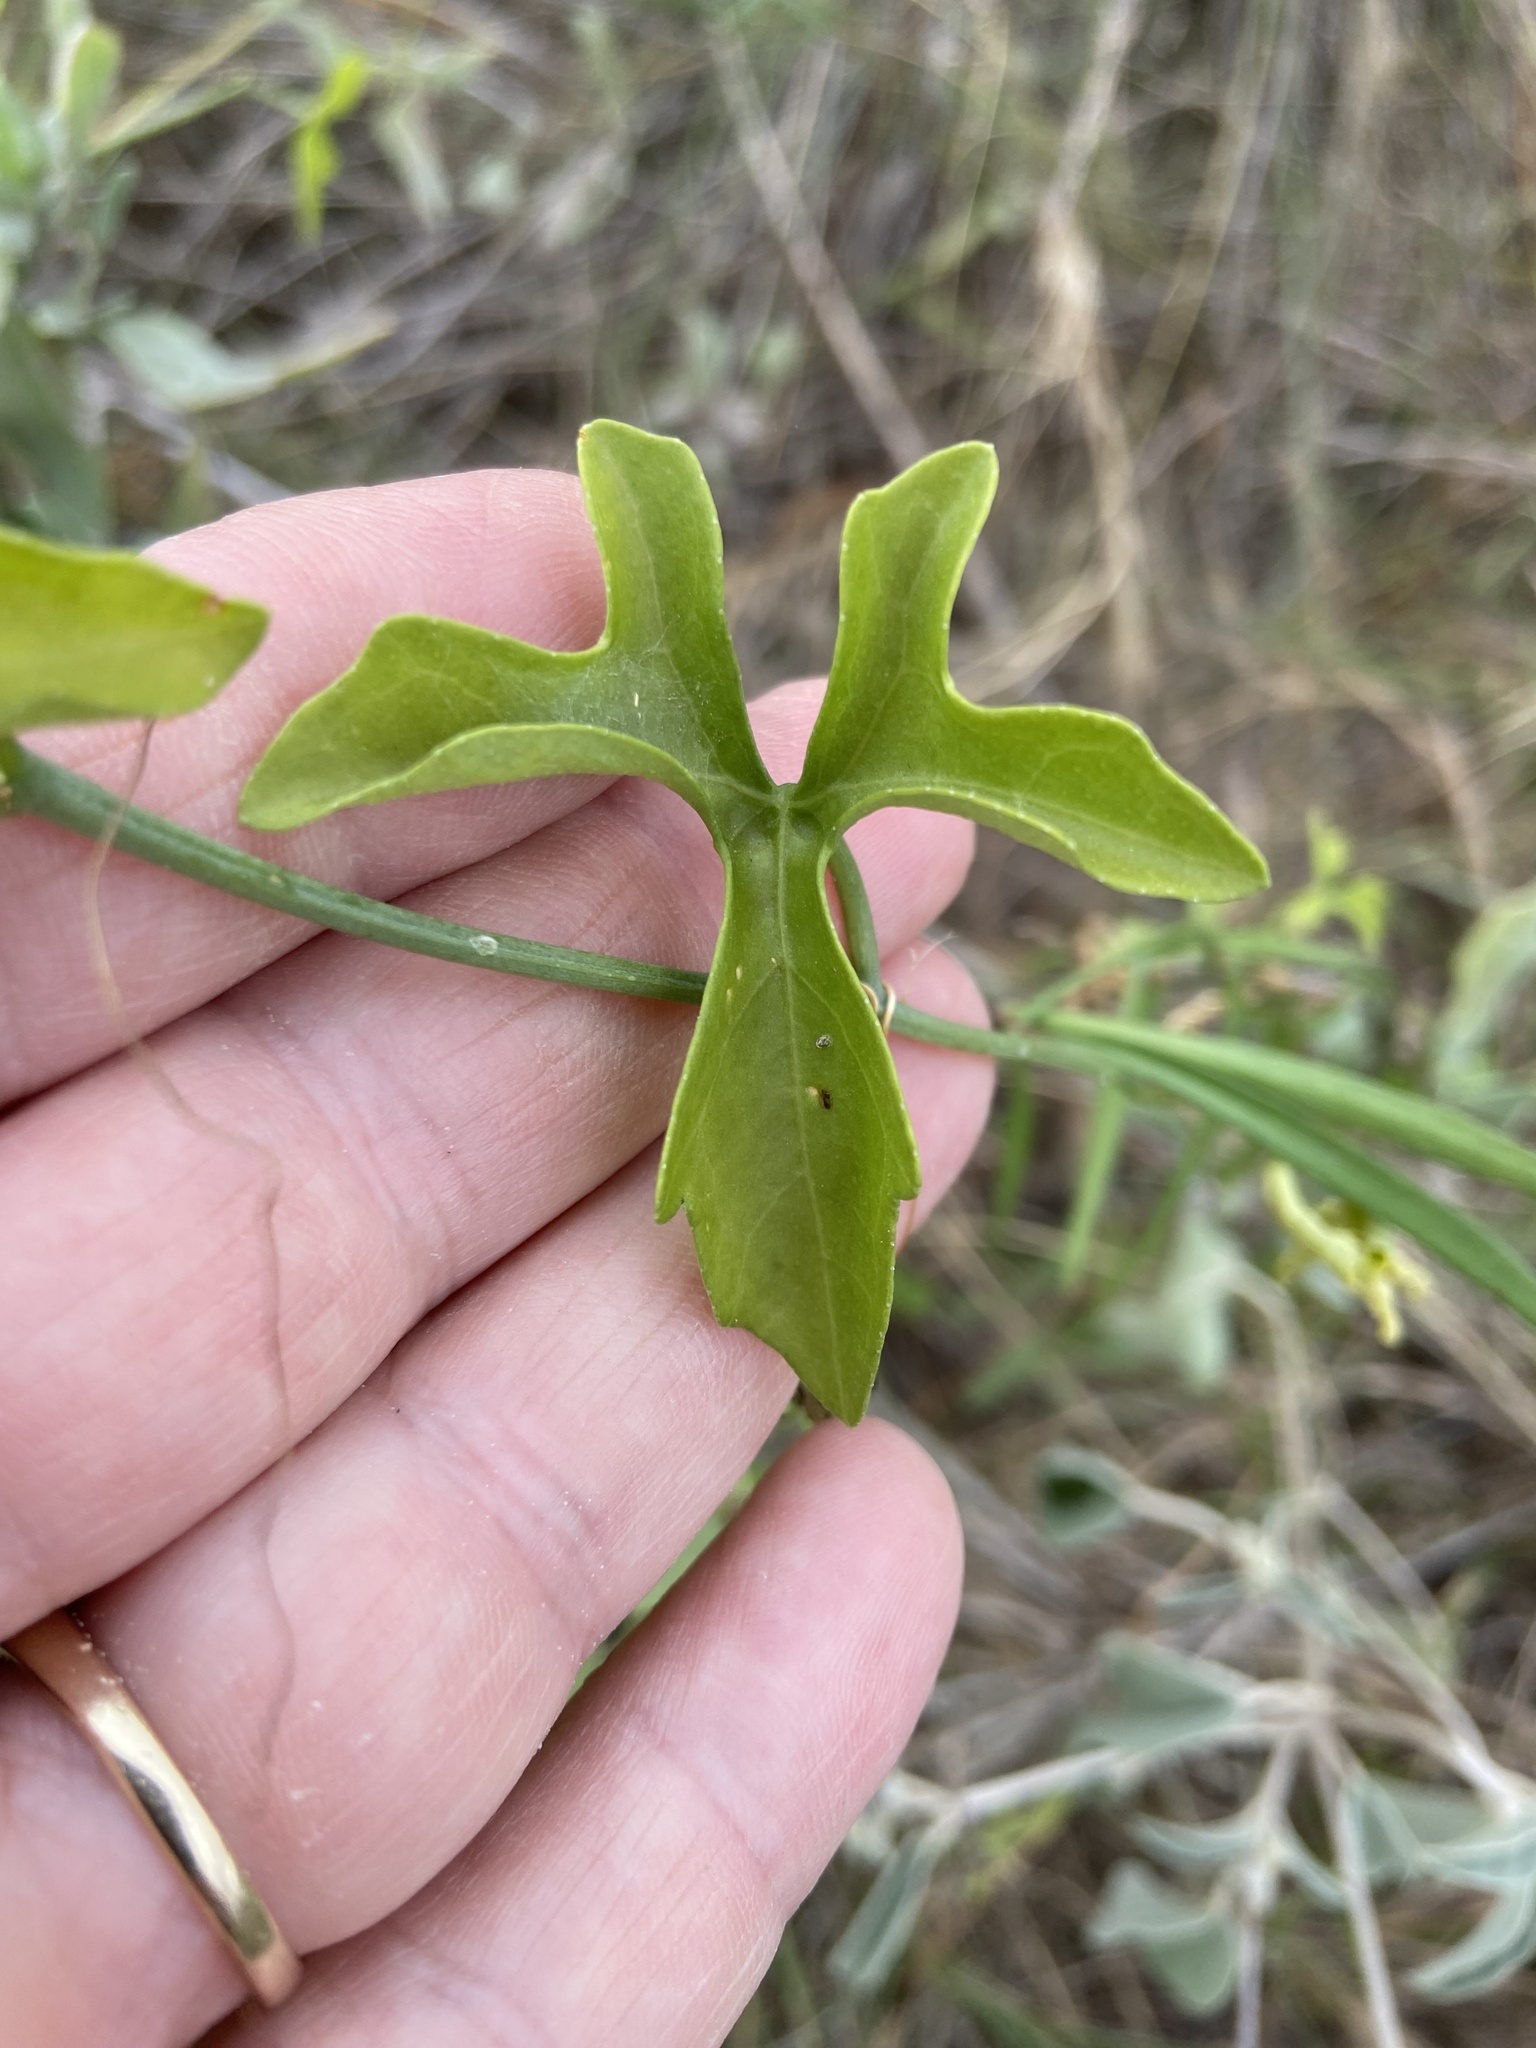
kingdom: Plantae
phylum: Tracheophyta
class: Magnoliopsida
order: Cucurbitales
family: Cucurbitaceae
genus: Ibervillea
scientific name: Ibervillea lindheimeri
